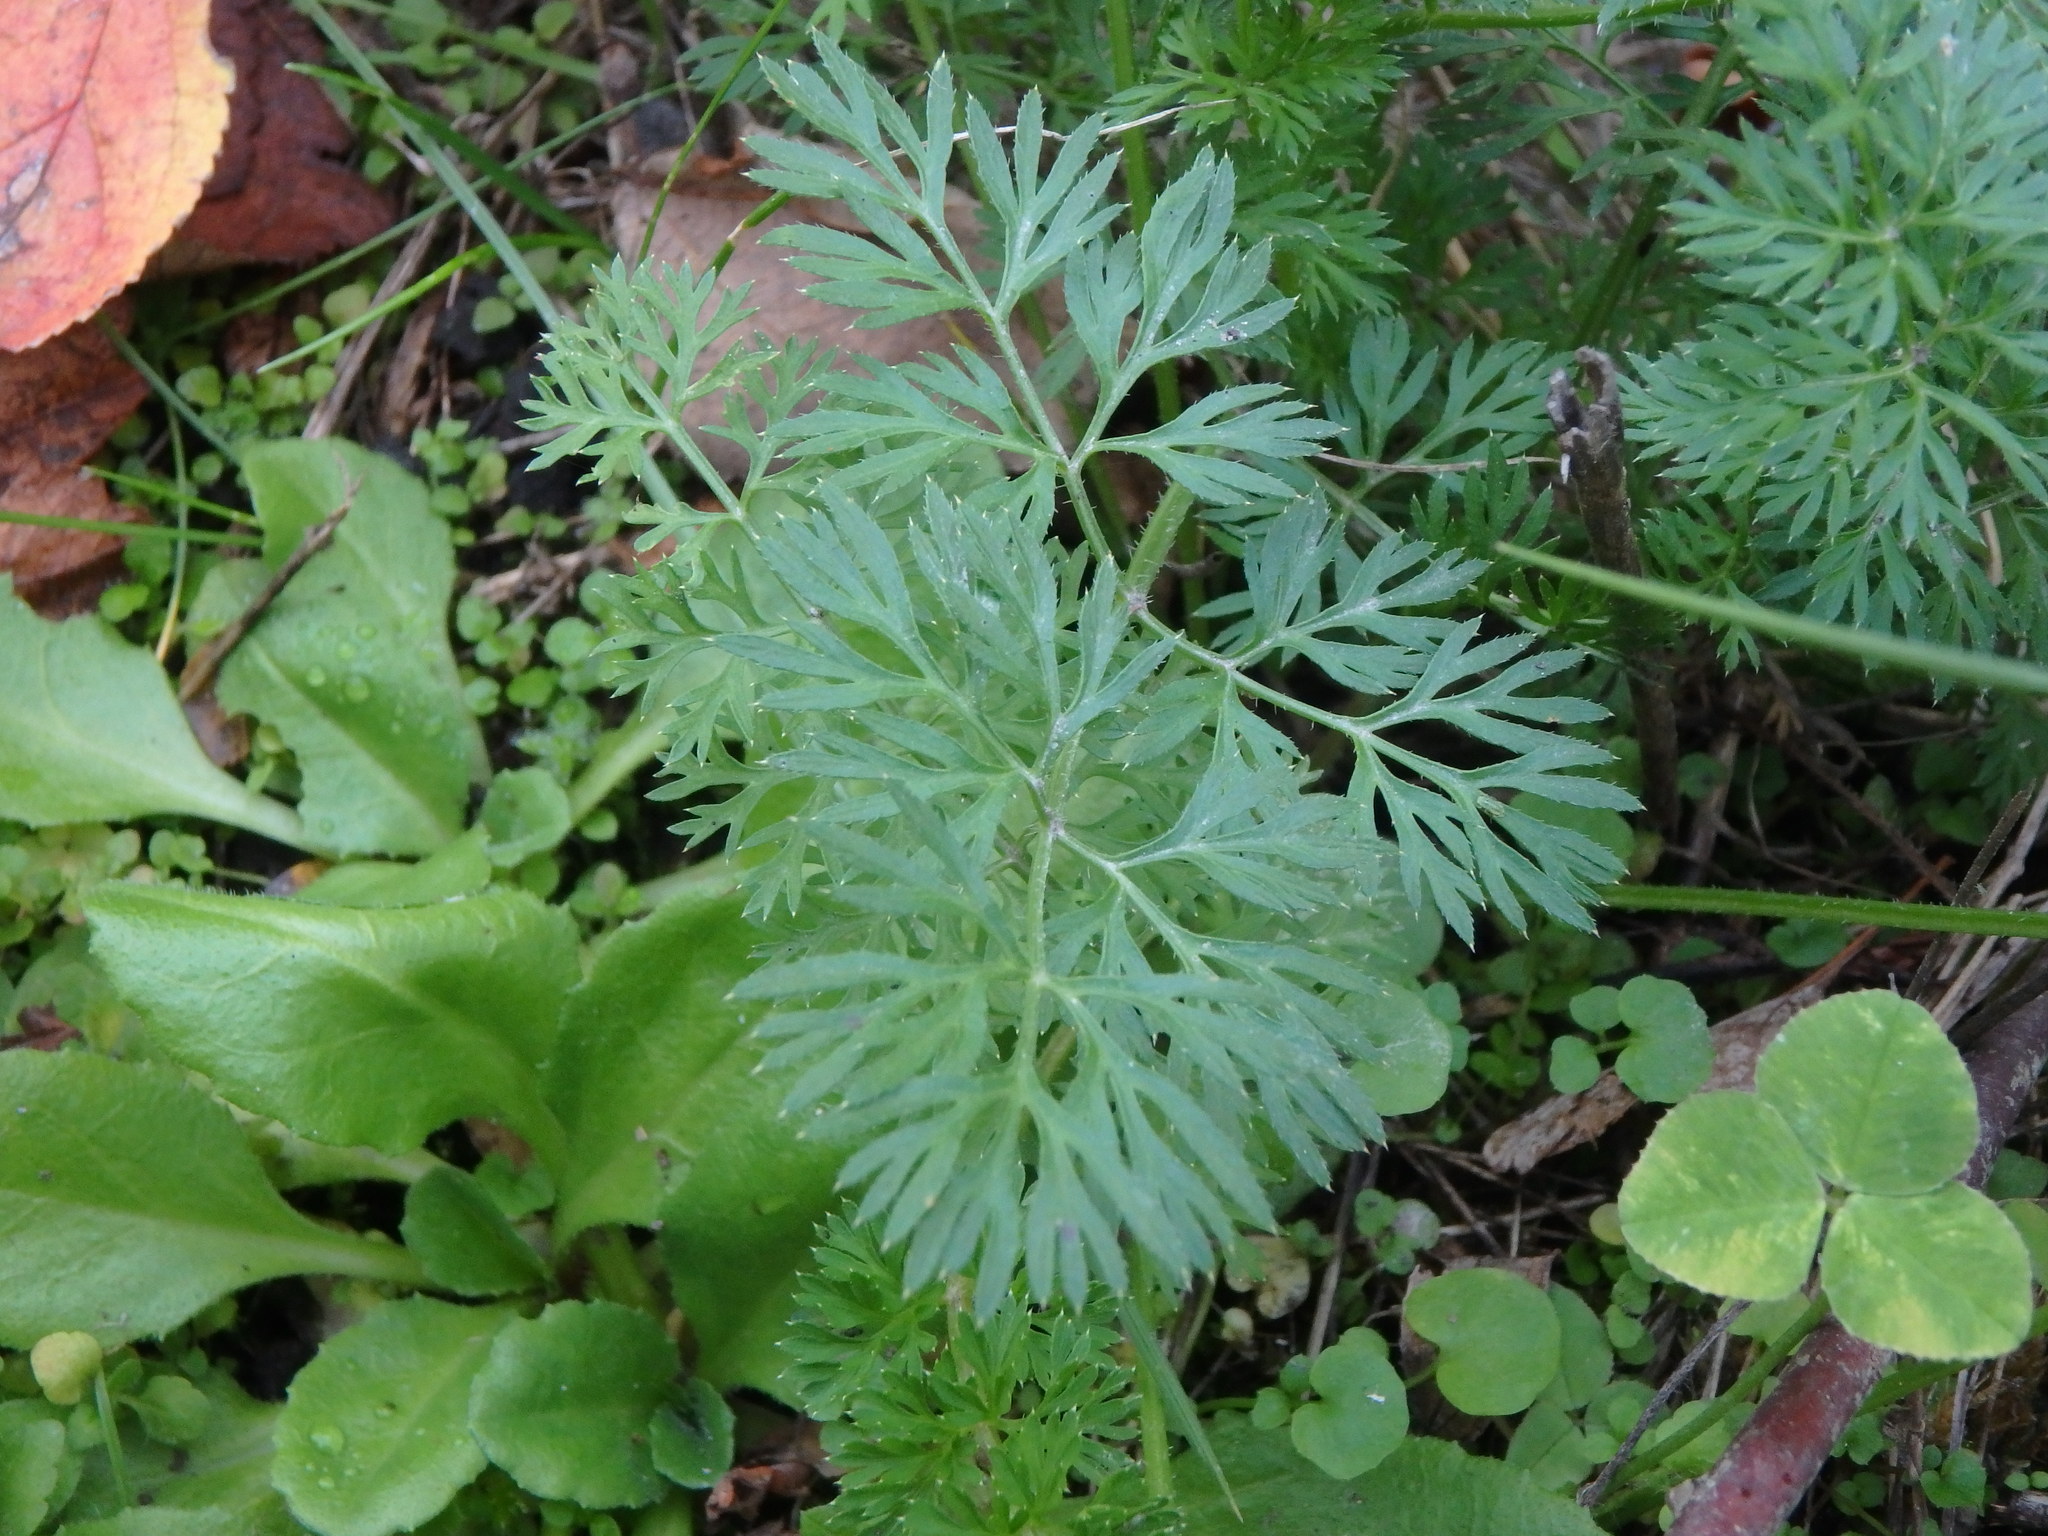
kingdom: Plantae
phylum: Tracheophyta
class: Magnoliopsida
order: Apiales
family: Apiaceae
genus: Daucus
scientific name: Daucus carota
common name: Wild carrot
